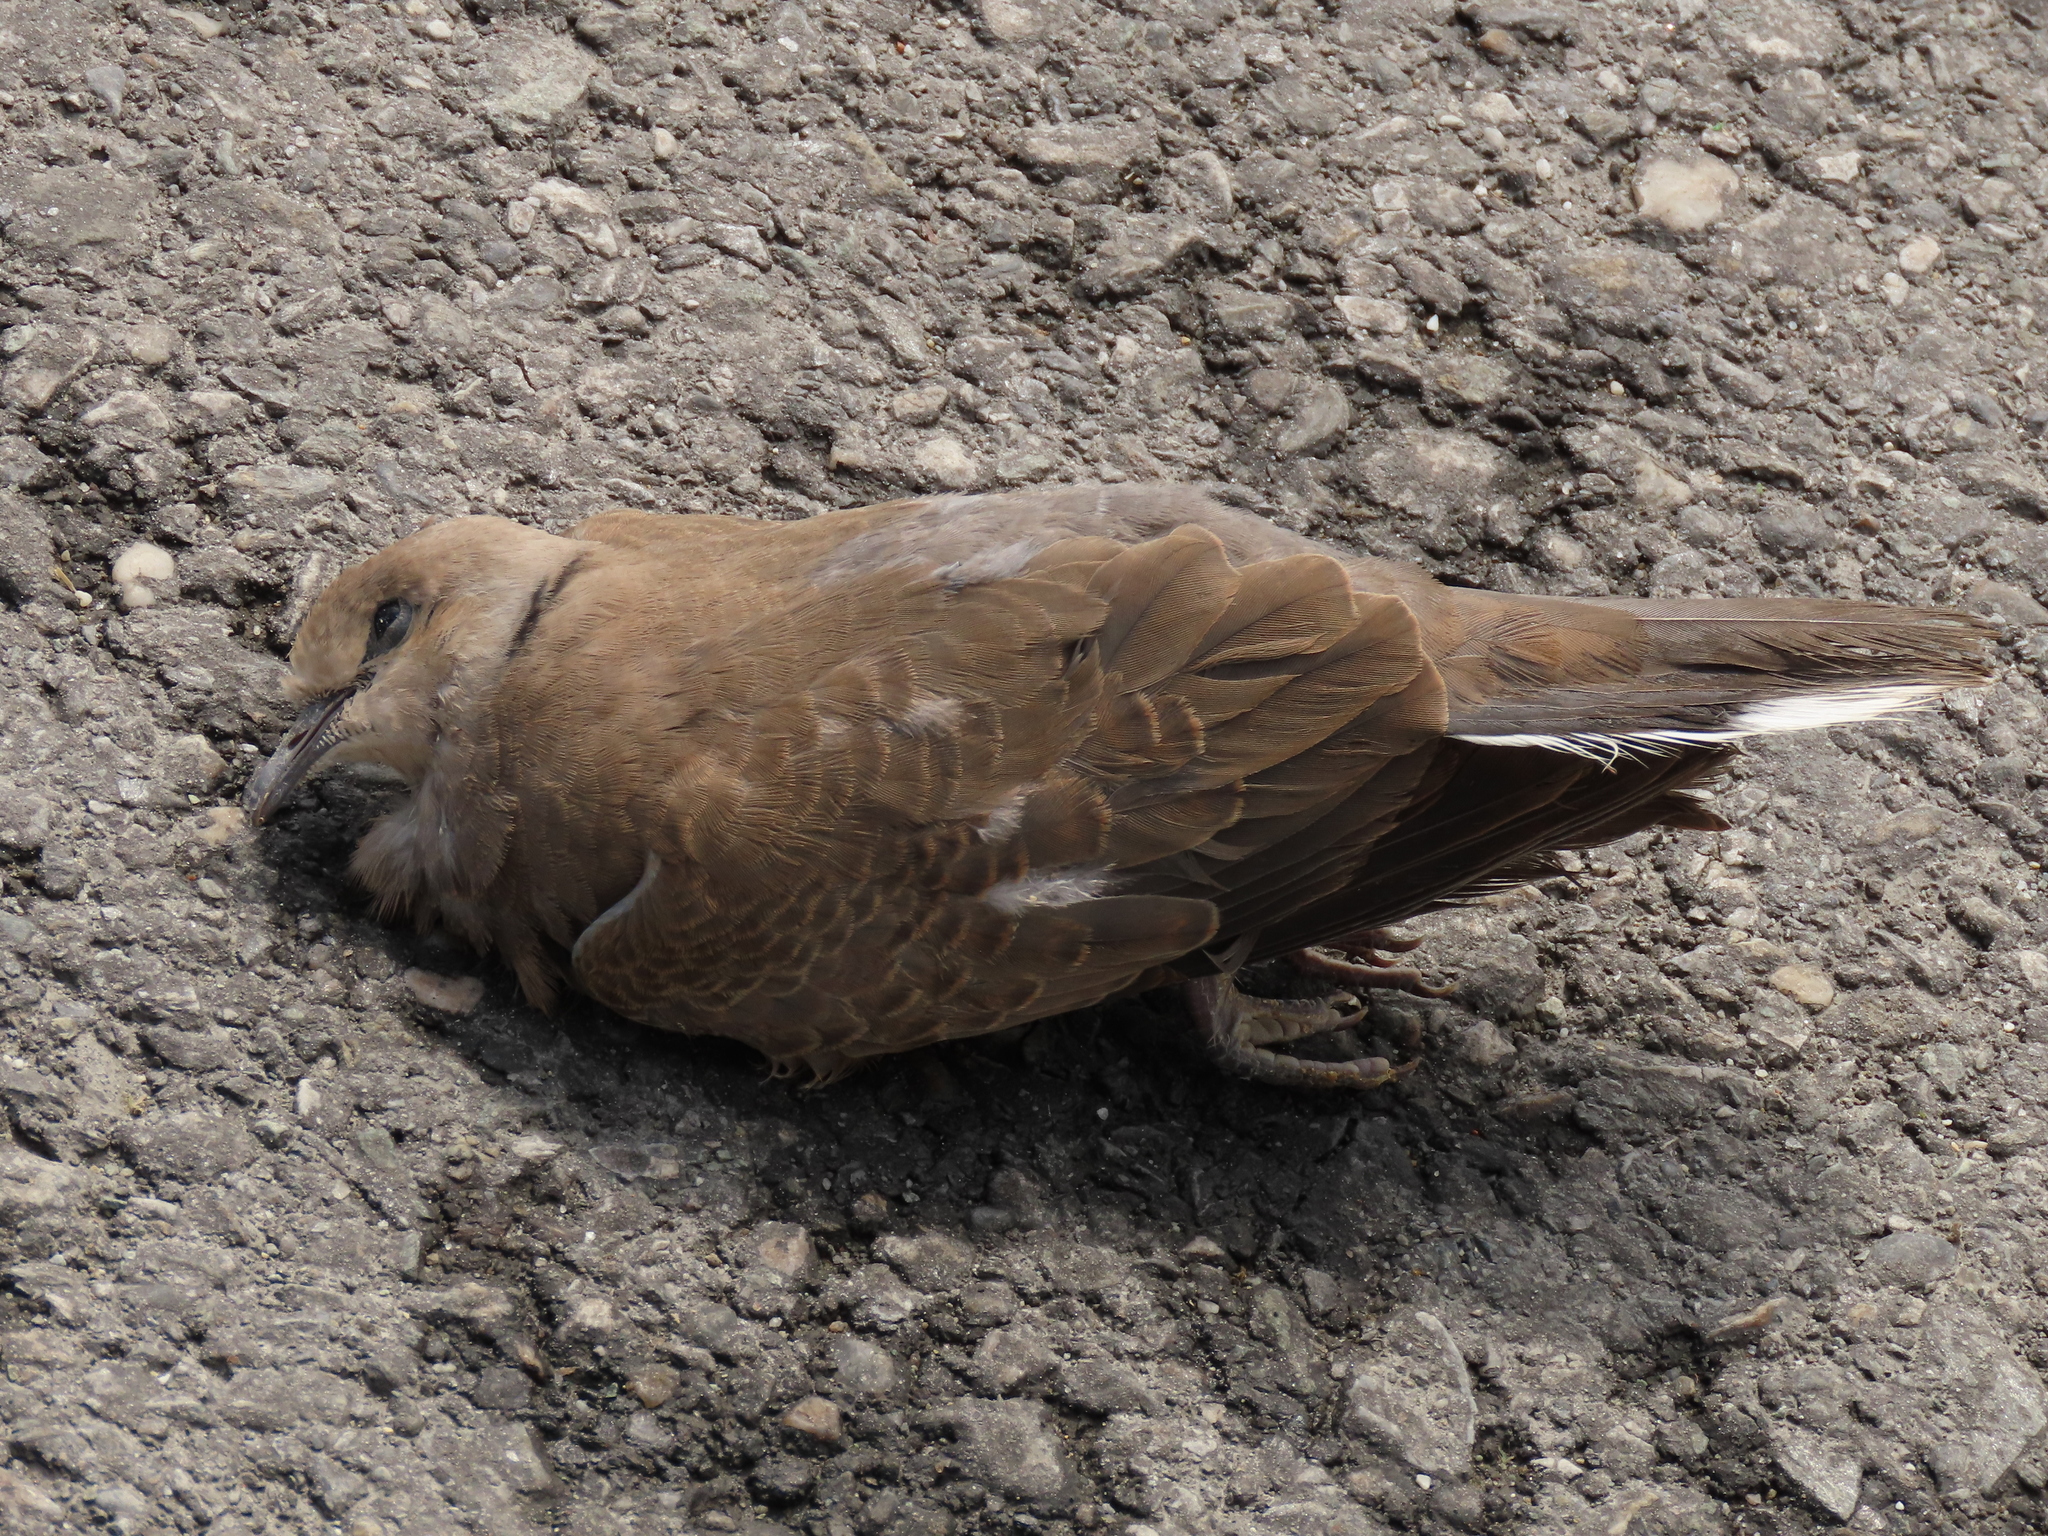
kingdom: Animalia
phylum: Chordata
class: Aves
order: Columbiformes
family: Columbidae
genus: Streptopelia
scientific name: Streptopelia tranquebarica
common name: Red turtle dove
